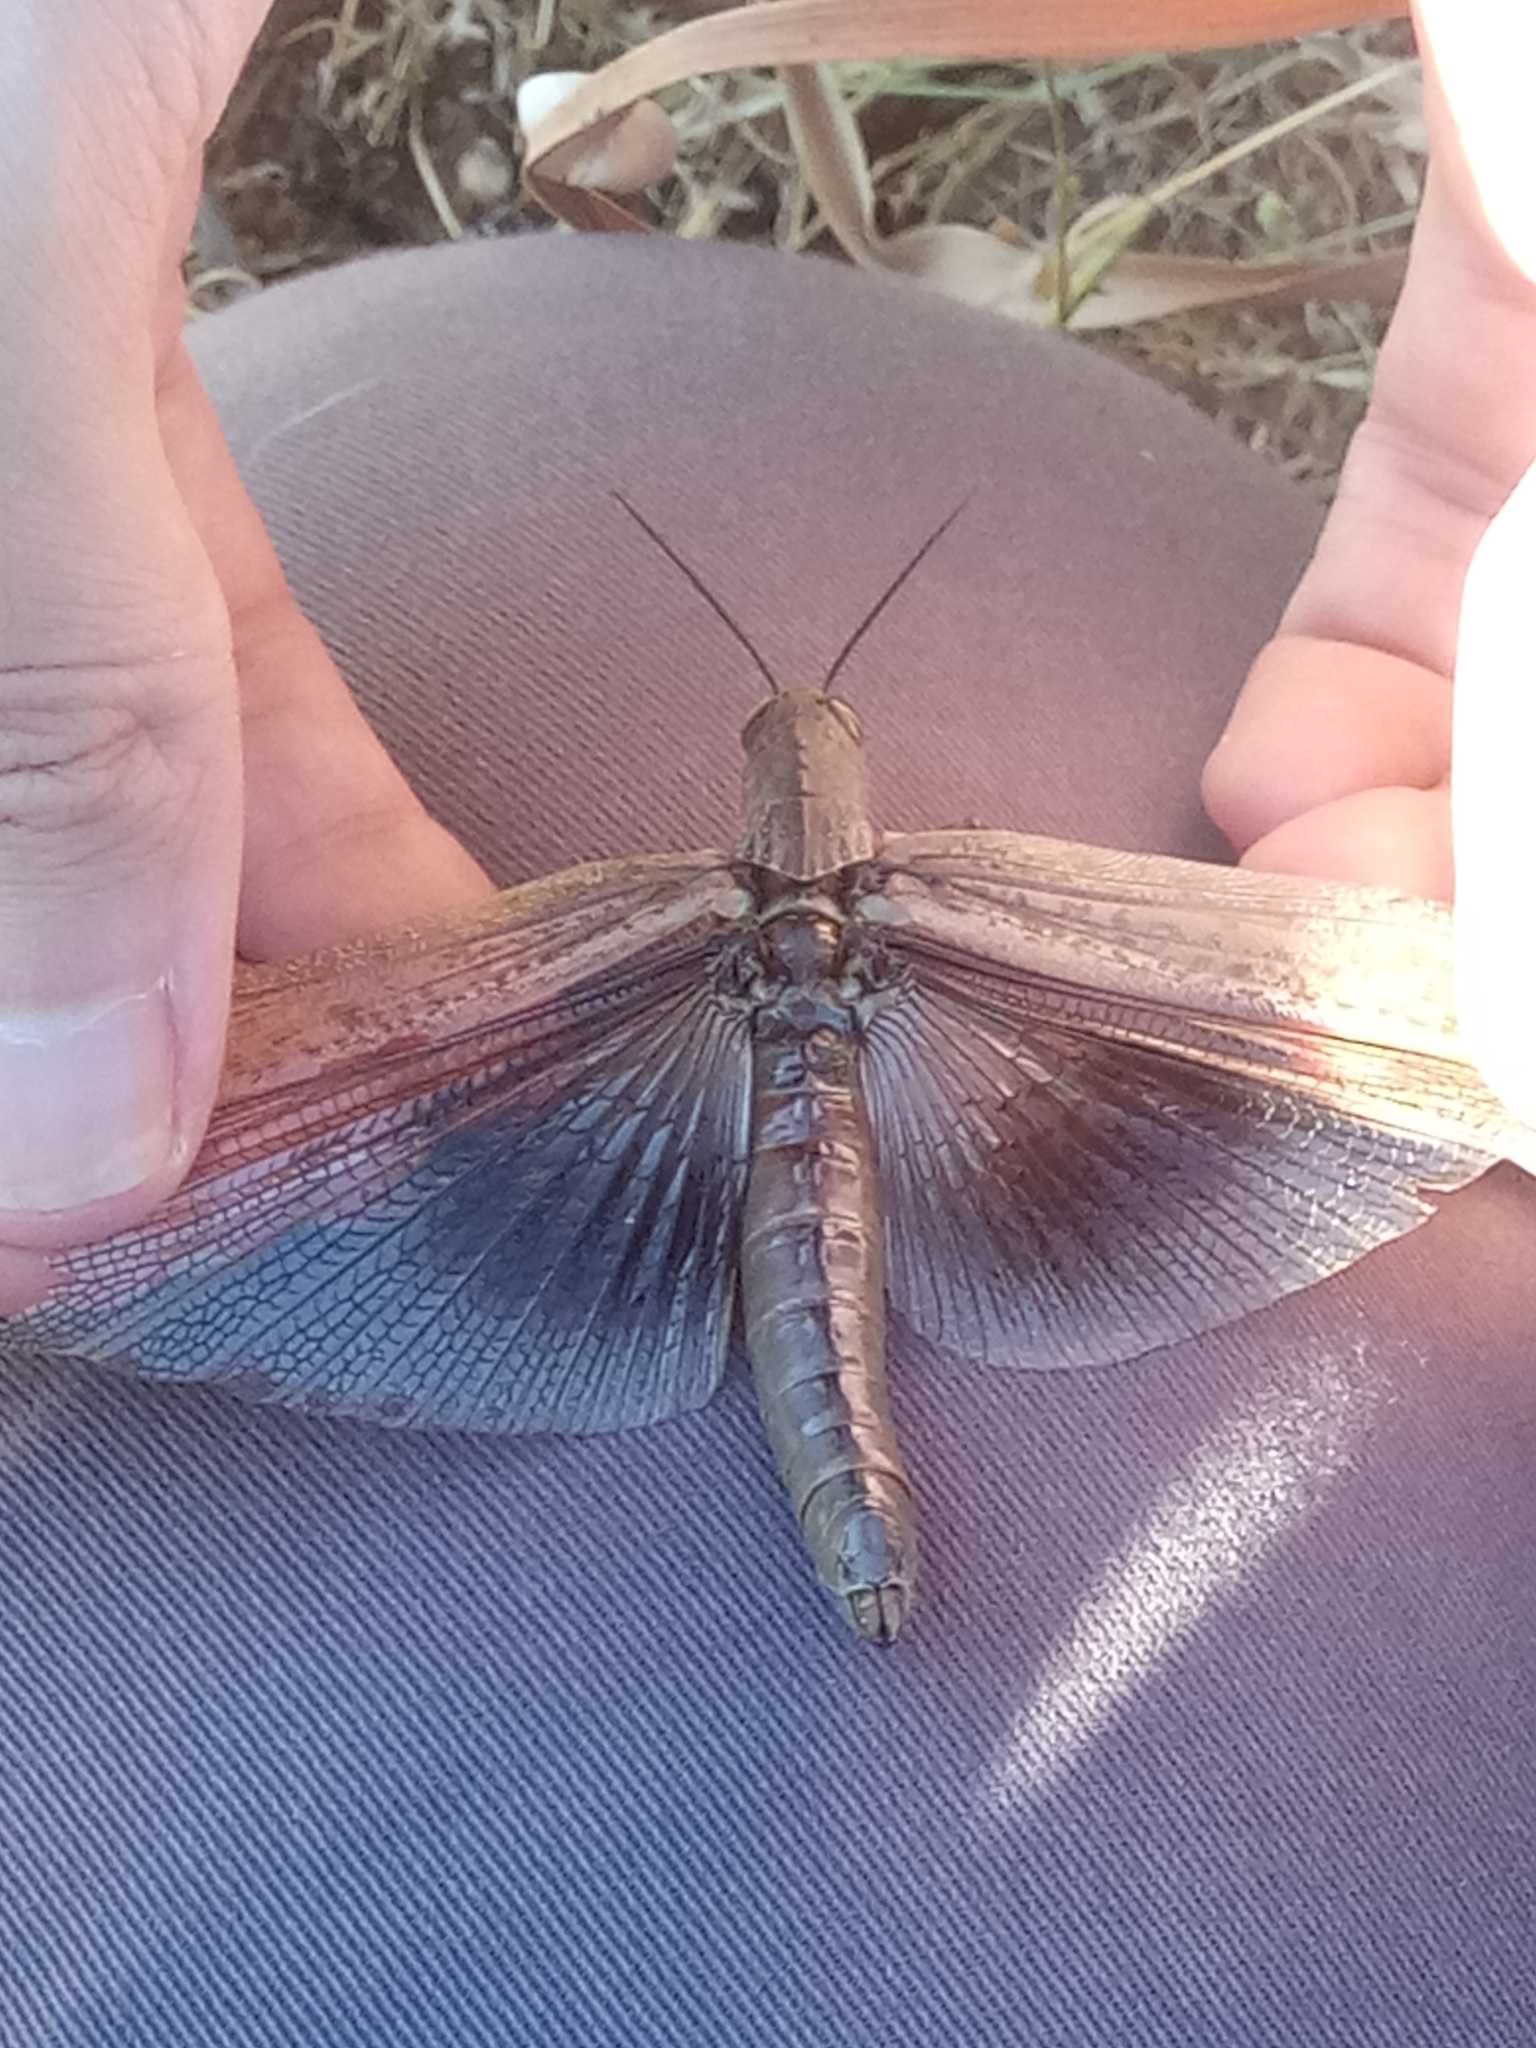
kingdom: Animalia
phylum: Arthropoda
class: Insecta
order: Orthoptera
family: Acrididae
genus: Anacridium
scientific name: Anacridium aegyptium
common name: Egyptian grasshopper
